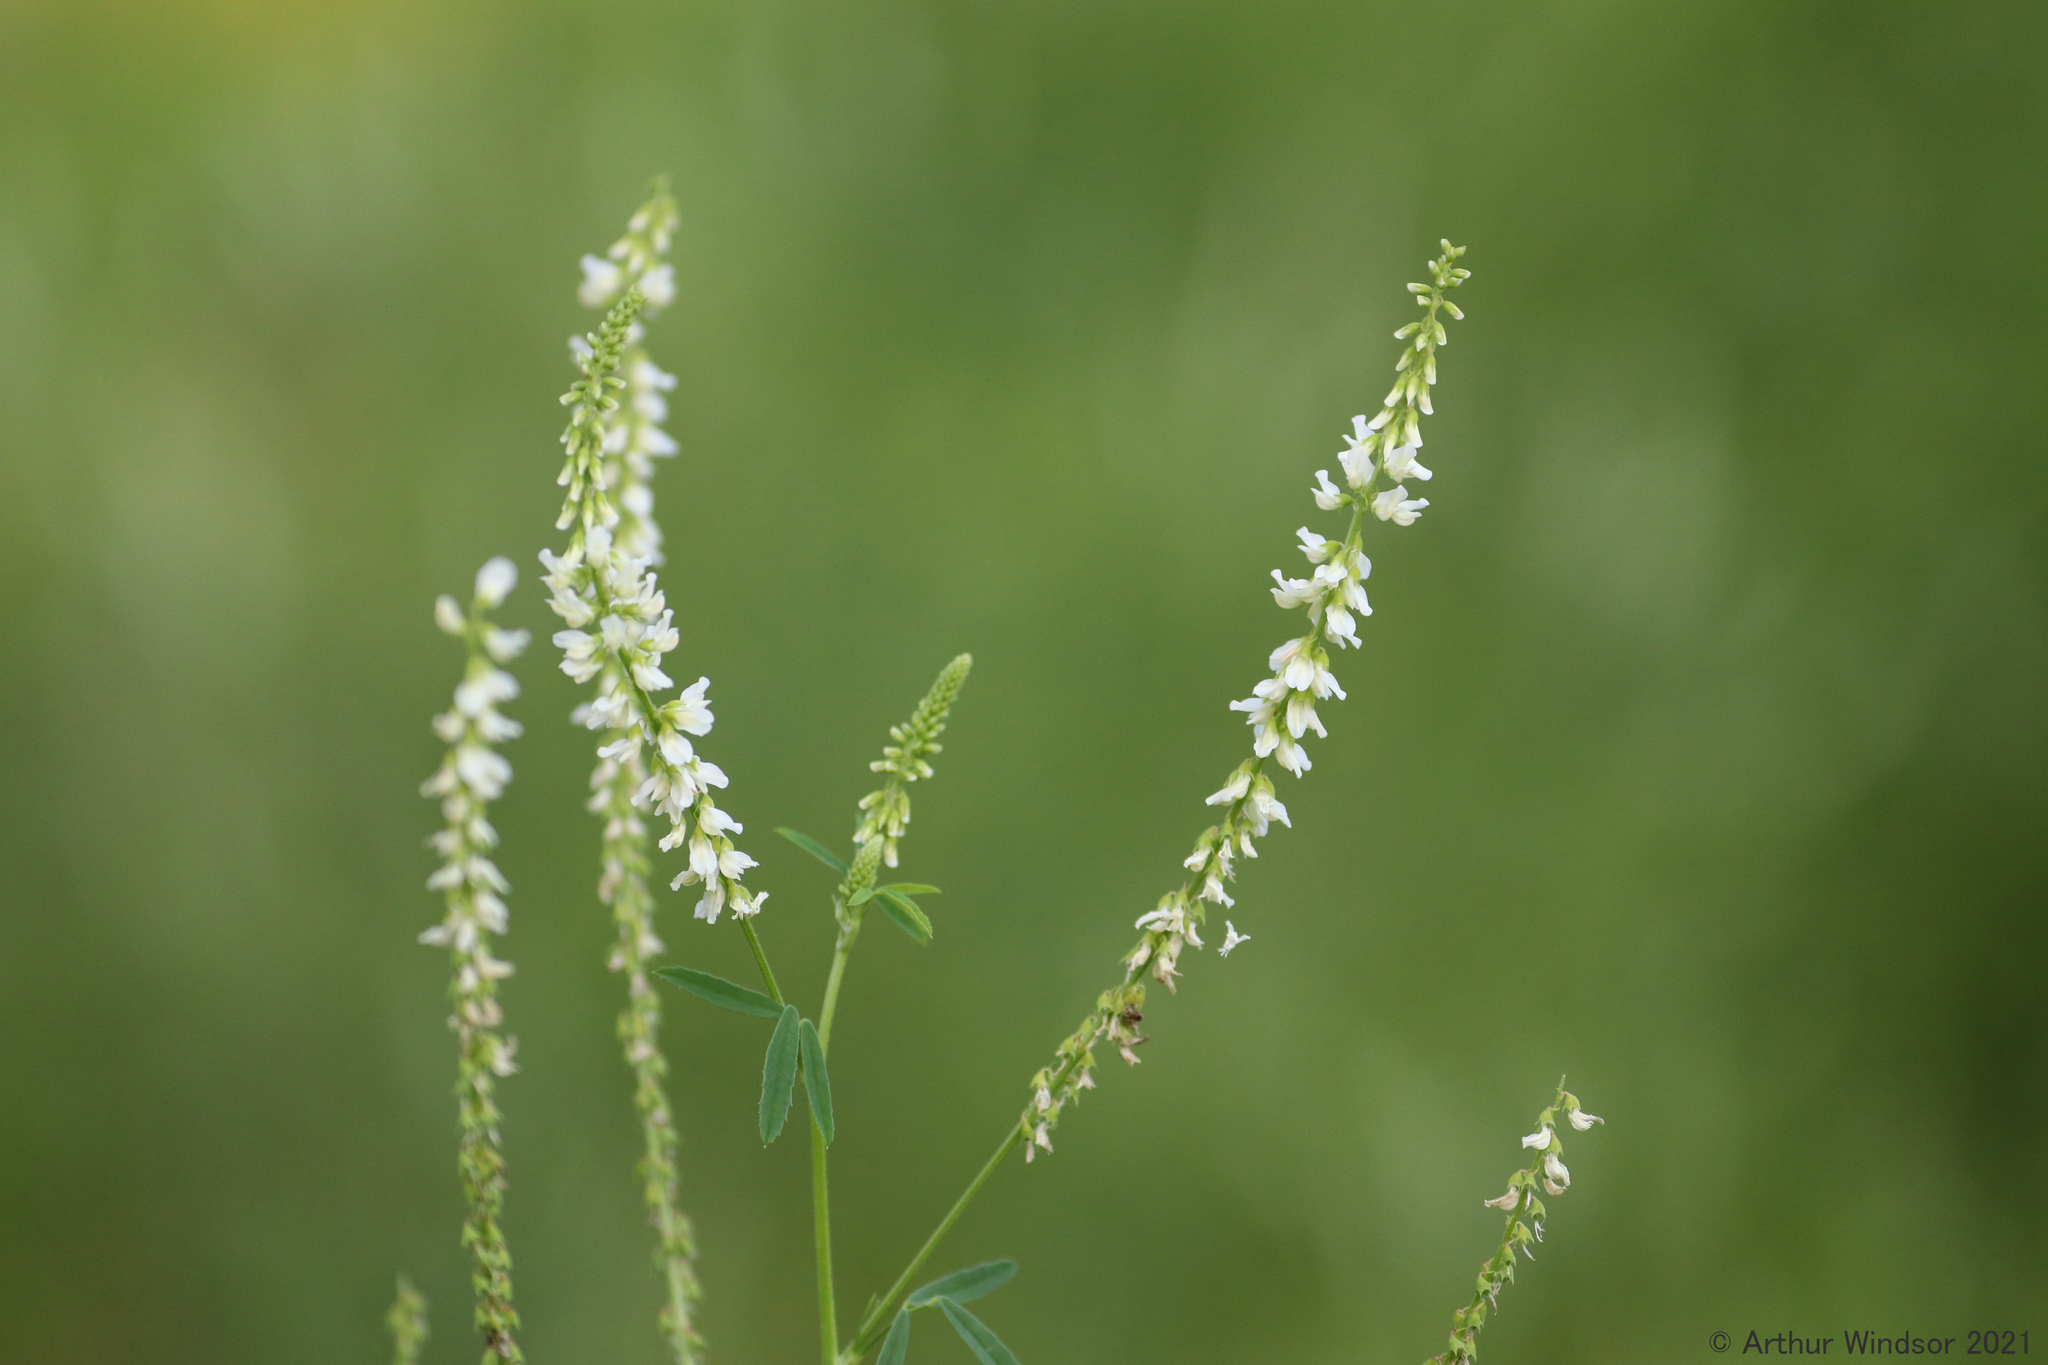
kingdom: Plantae
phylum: Tracheophyta
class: Magnoliopsida
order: Fabales
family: Fabaceae
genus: Melilotus
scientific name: Melilotus albus
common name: White melilot
